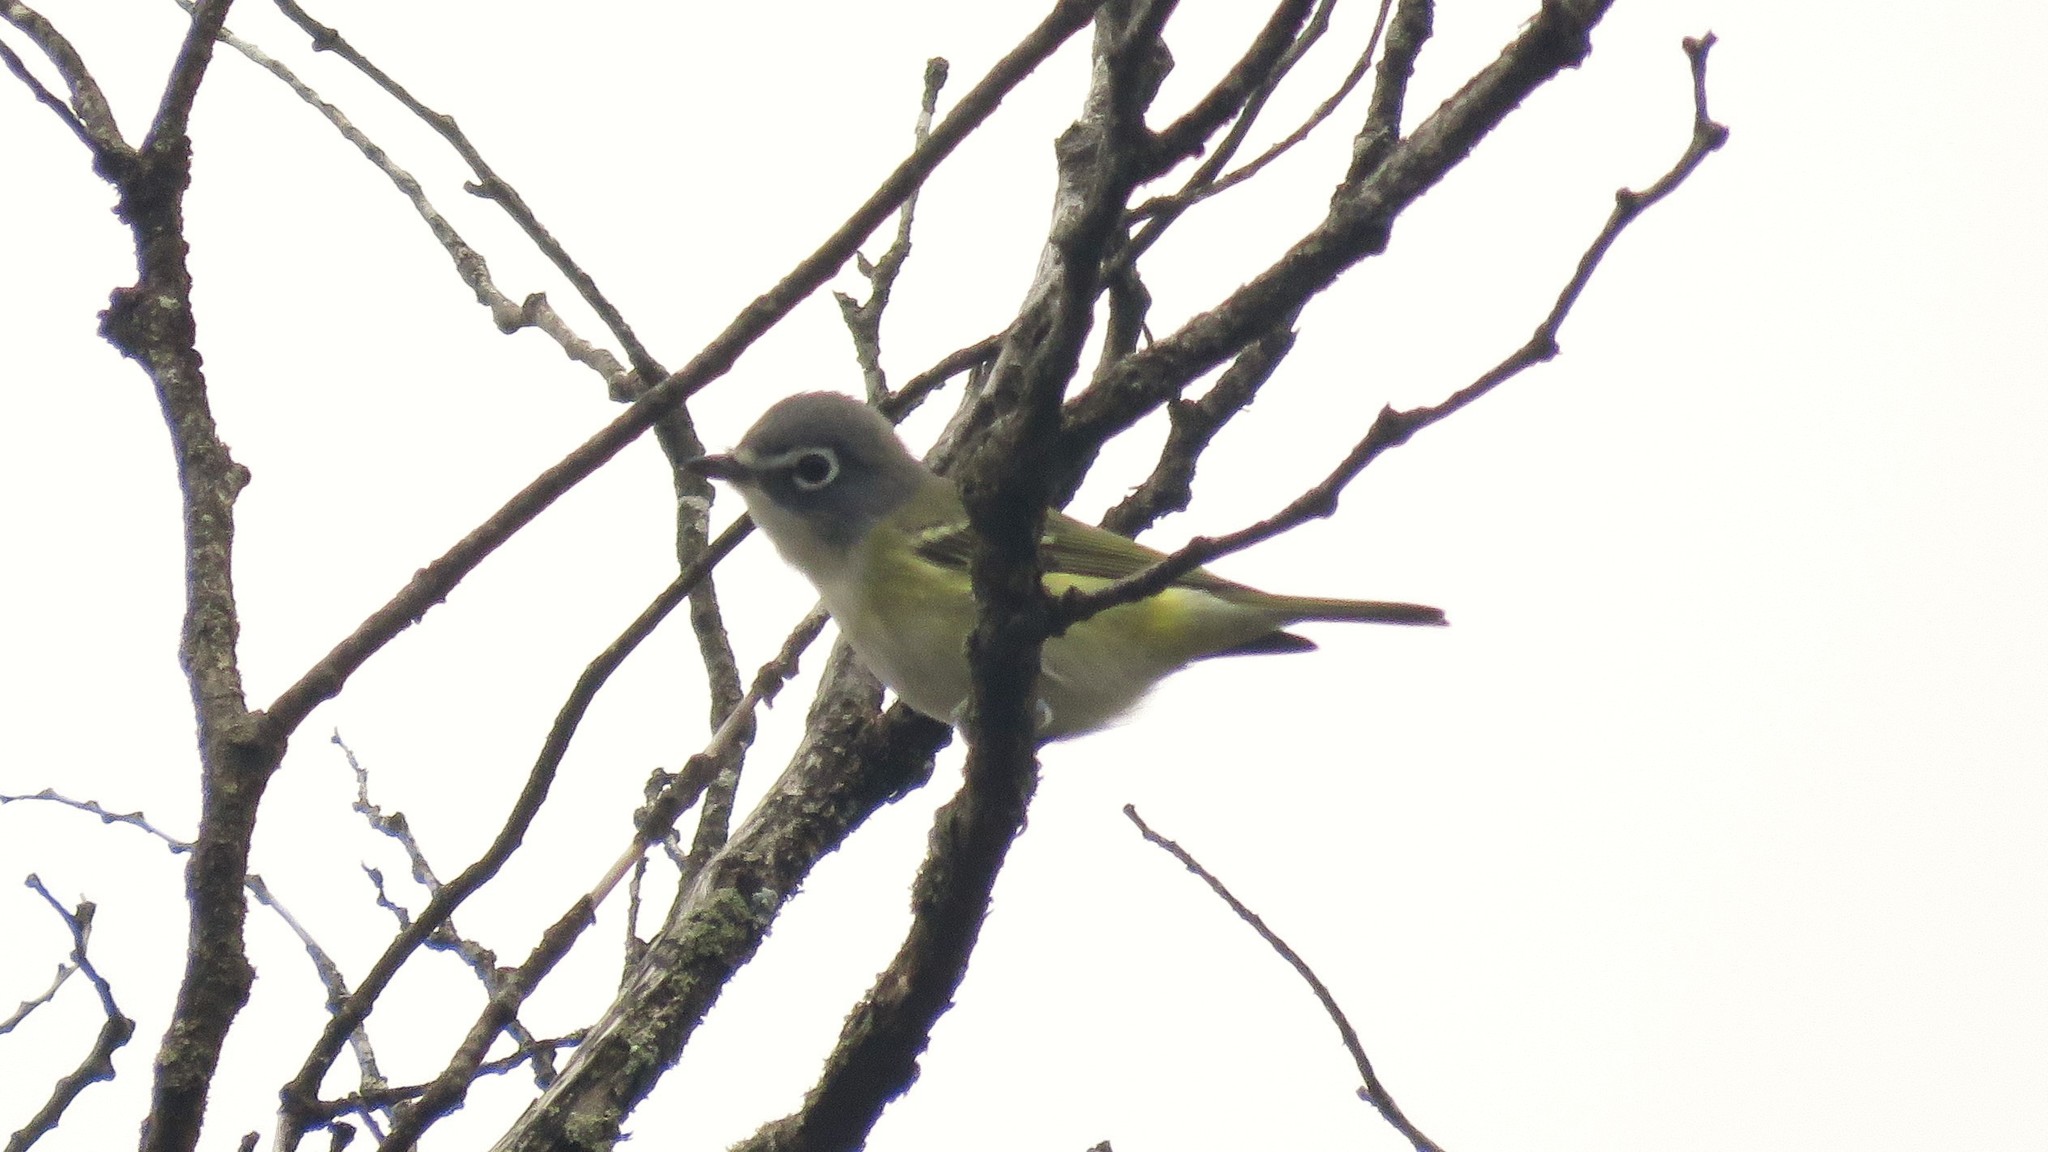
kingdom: Animalia
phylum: Chordata
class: Aves
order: Passeriformes
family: Vireonidae
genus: Vireo
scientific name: Vireo solitarius
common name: Blue-headed vireo
